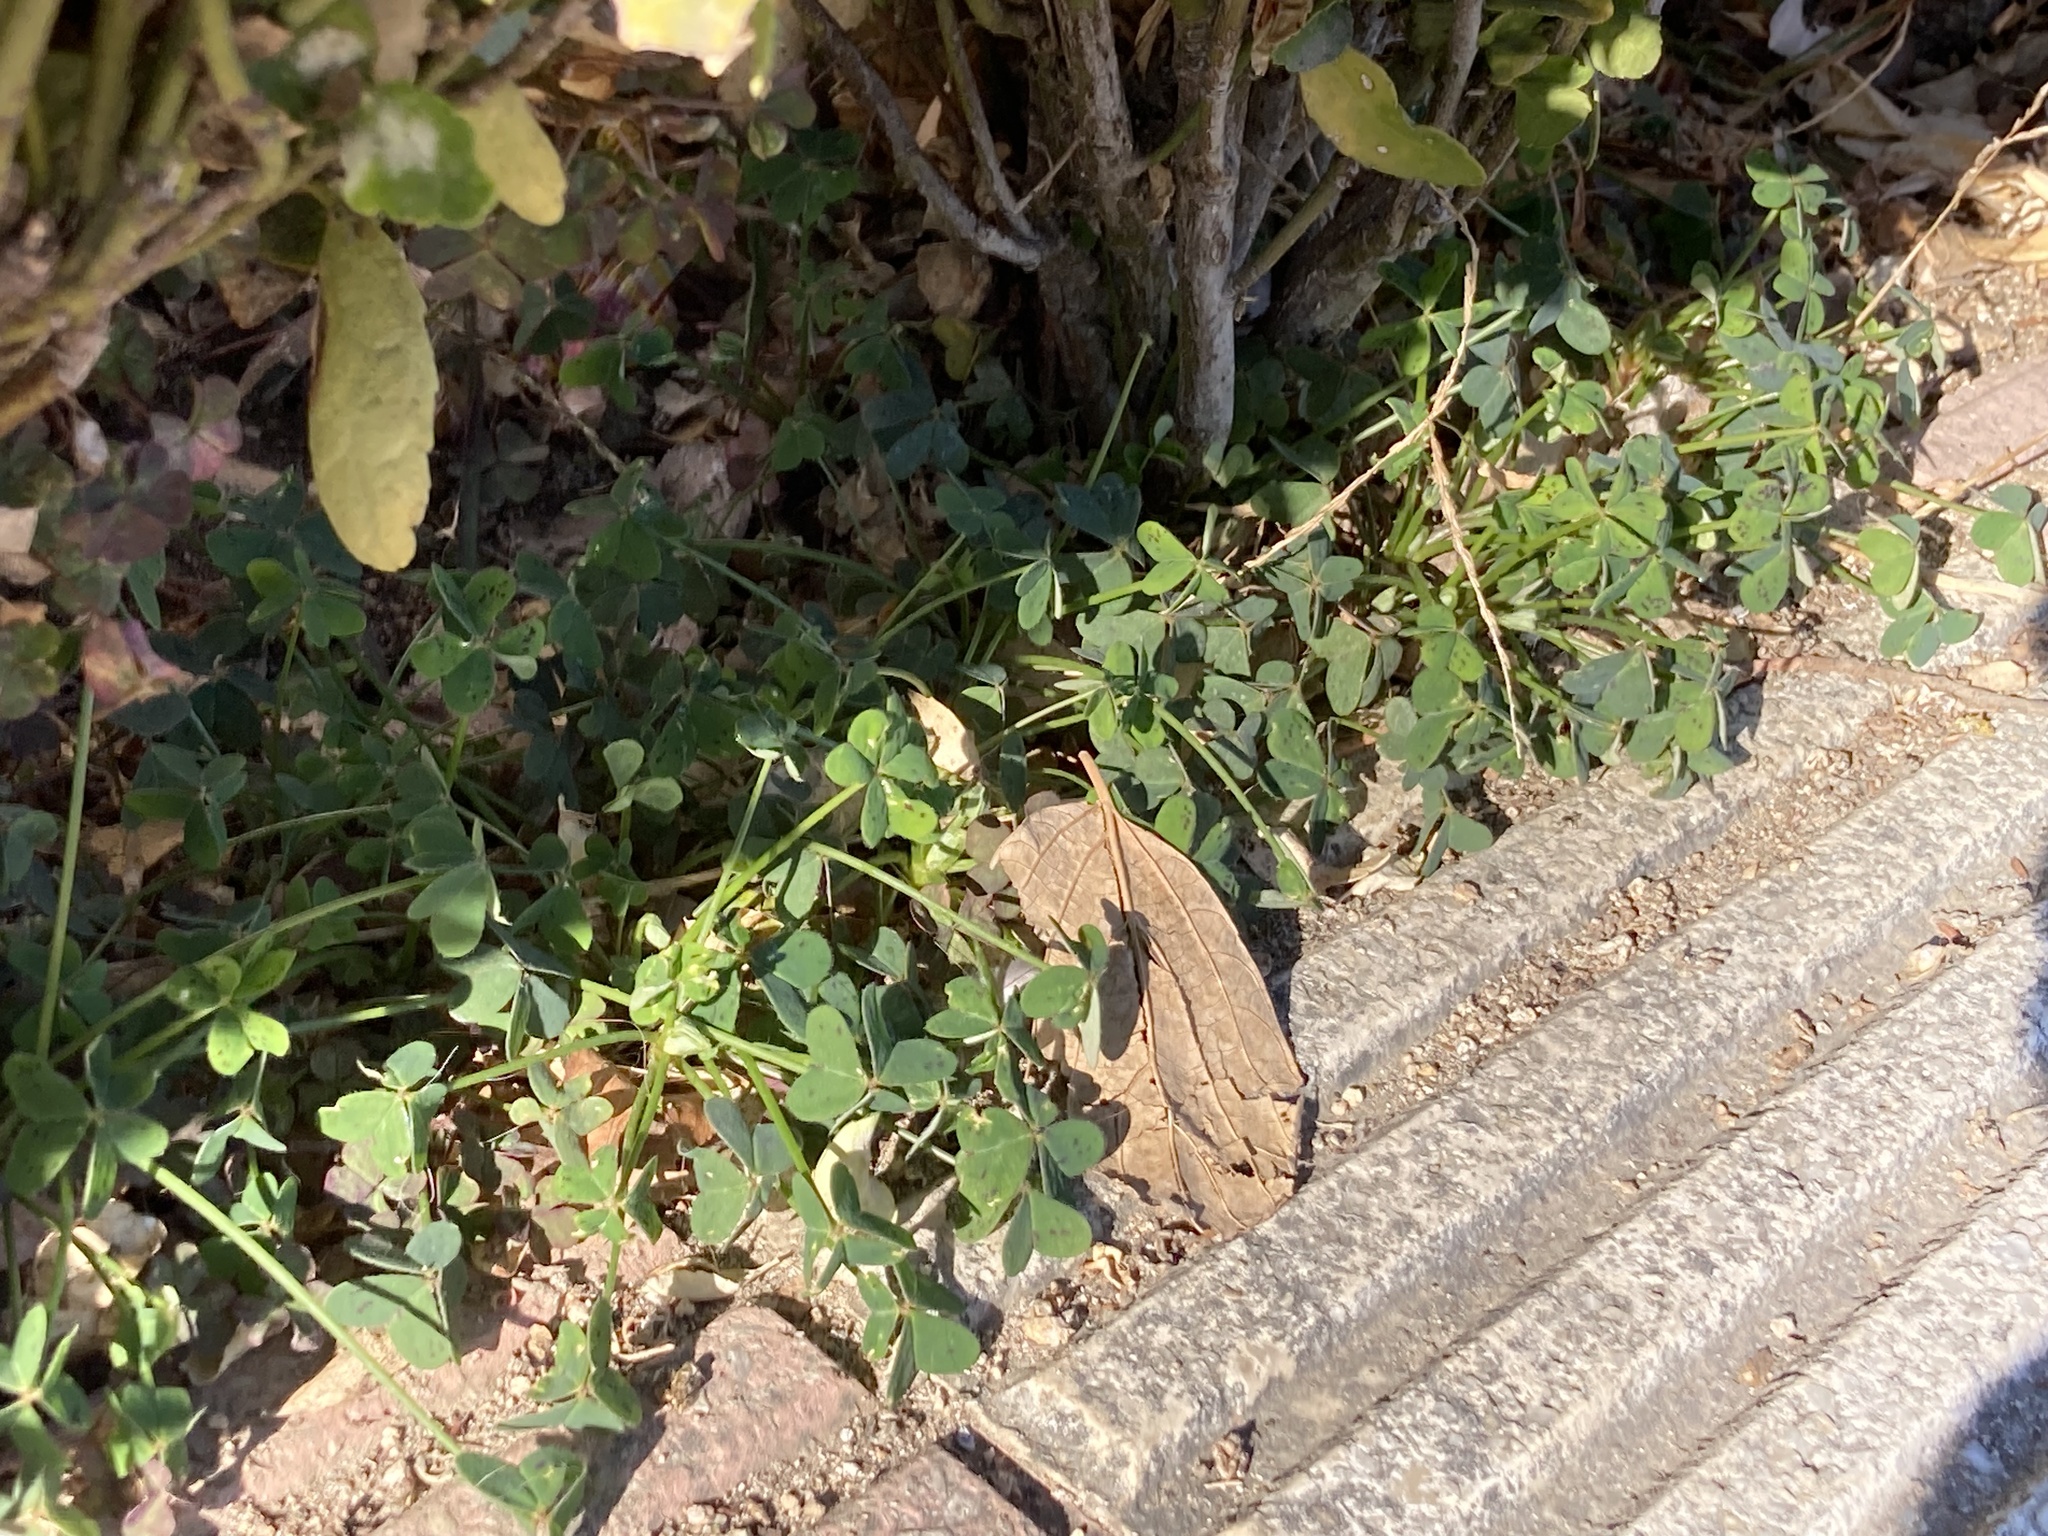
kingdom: Plantae
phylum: Tracheophyta
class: Magnoliopsida
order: Oxalidales
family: Oxalidaceae
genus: Oxalis
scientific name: Oxalis pes-caprae
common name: Bermuda-buttercup
